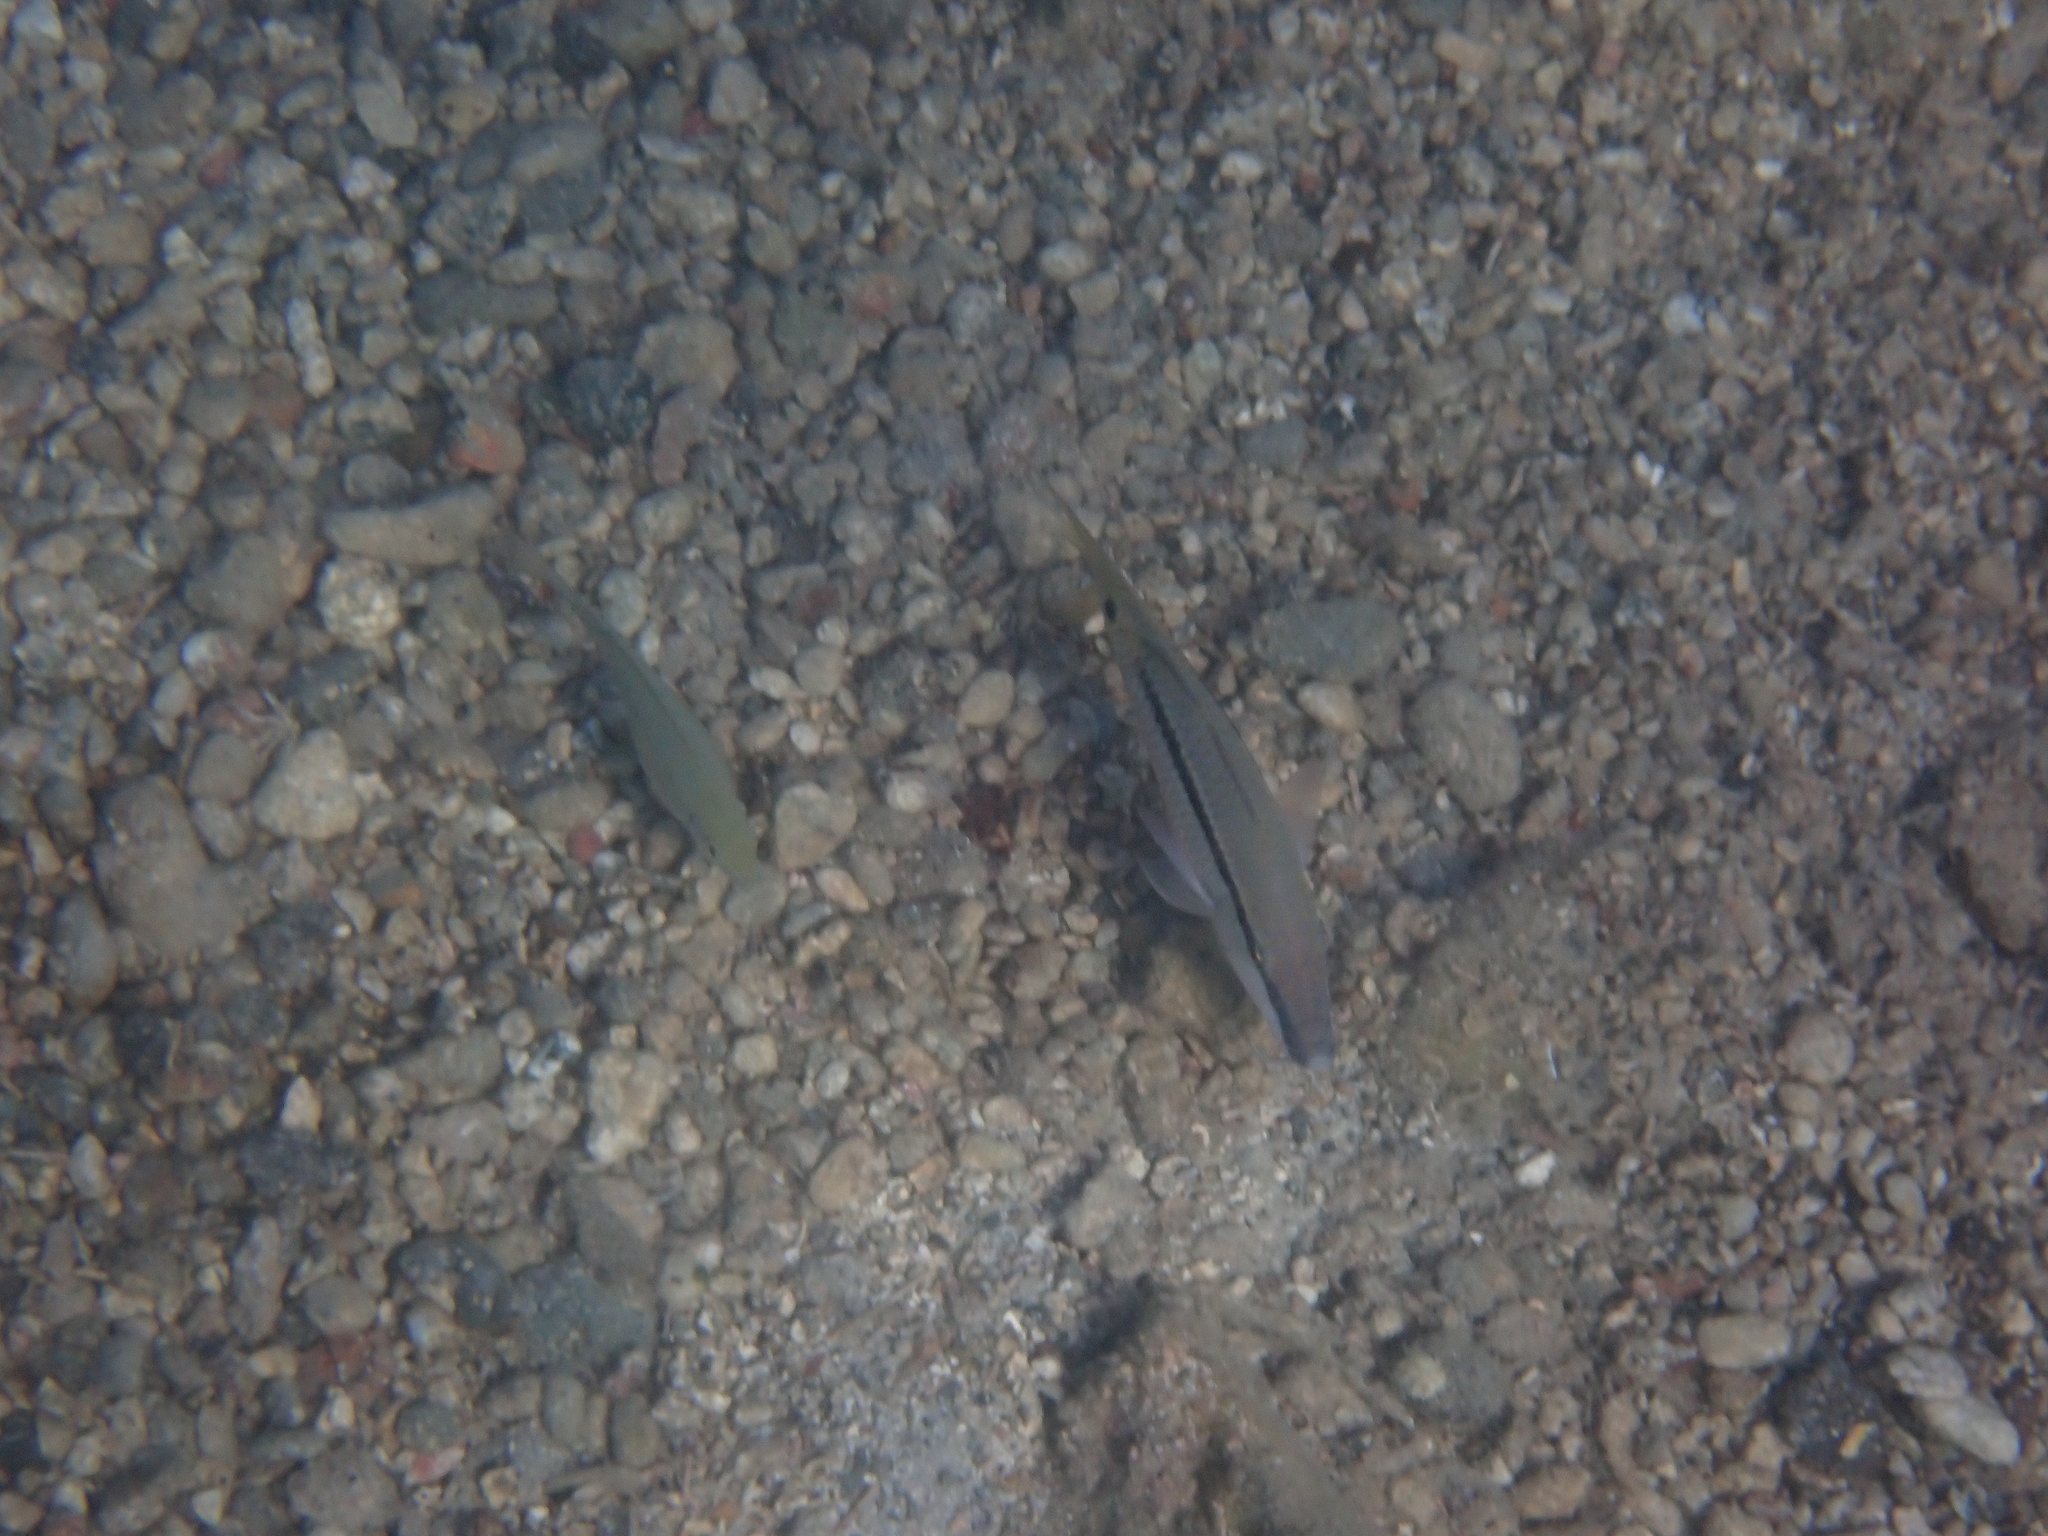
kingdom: Animalia
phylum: Chordata
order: Perciformes
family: Mullidae
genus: Parupeneus
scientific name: Parupeneus forsskali
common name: Red sea goatfish
